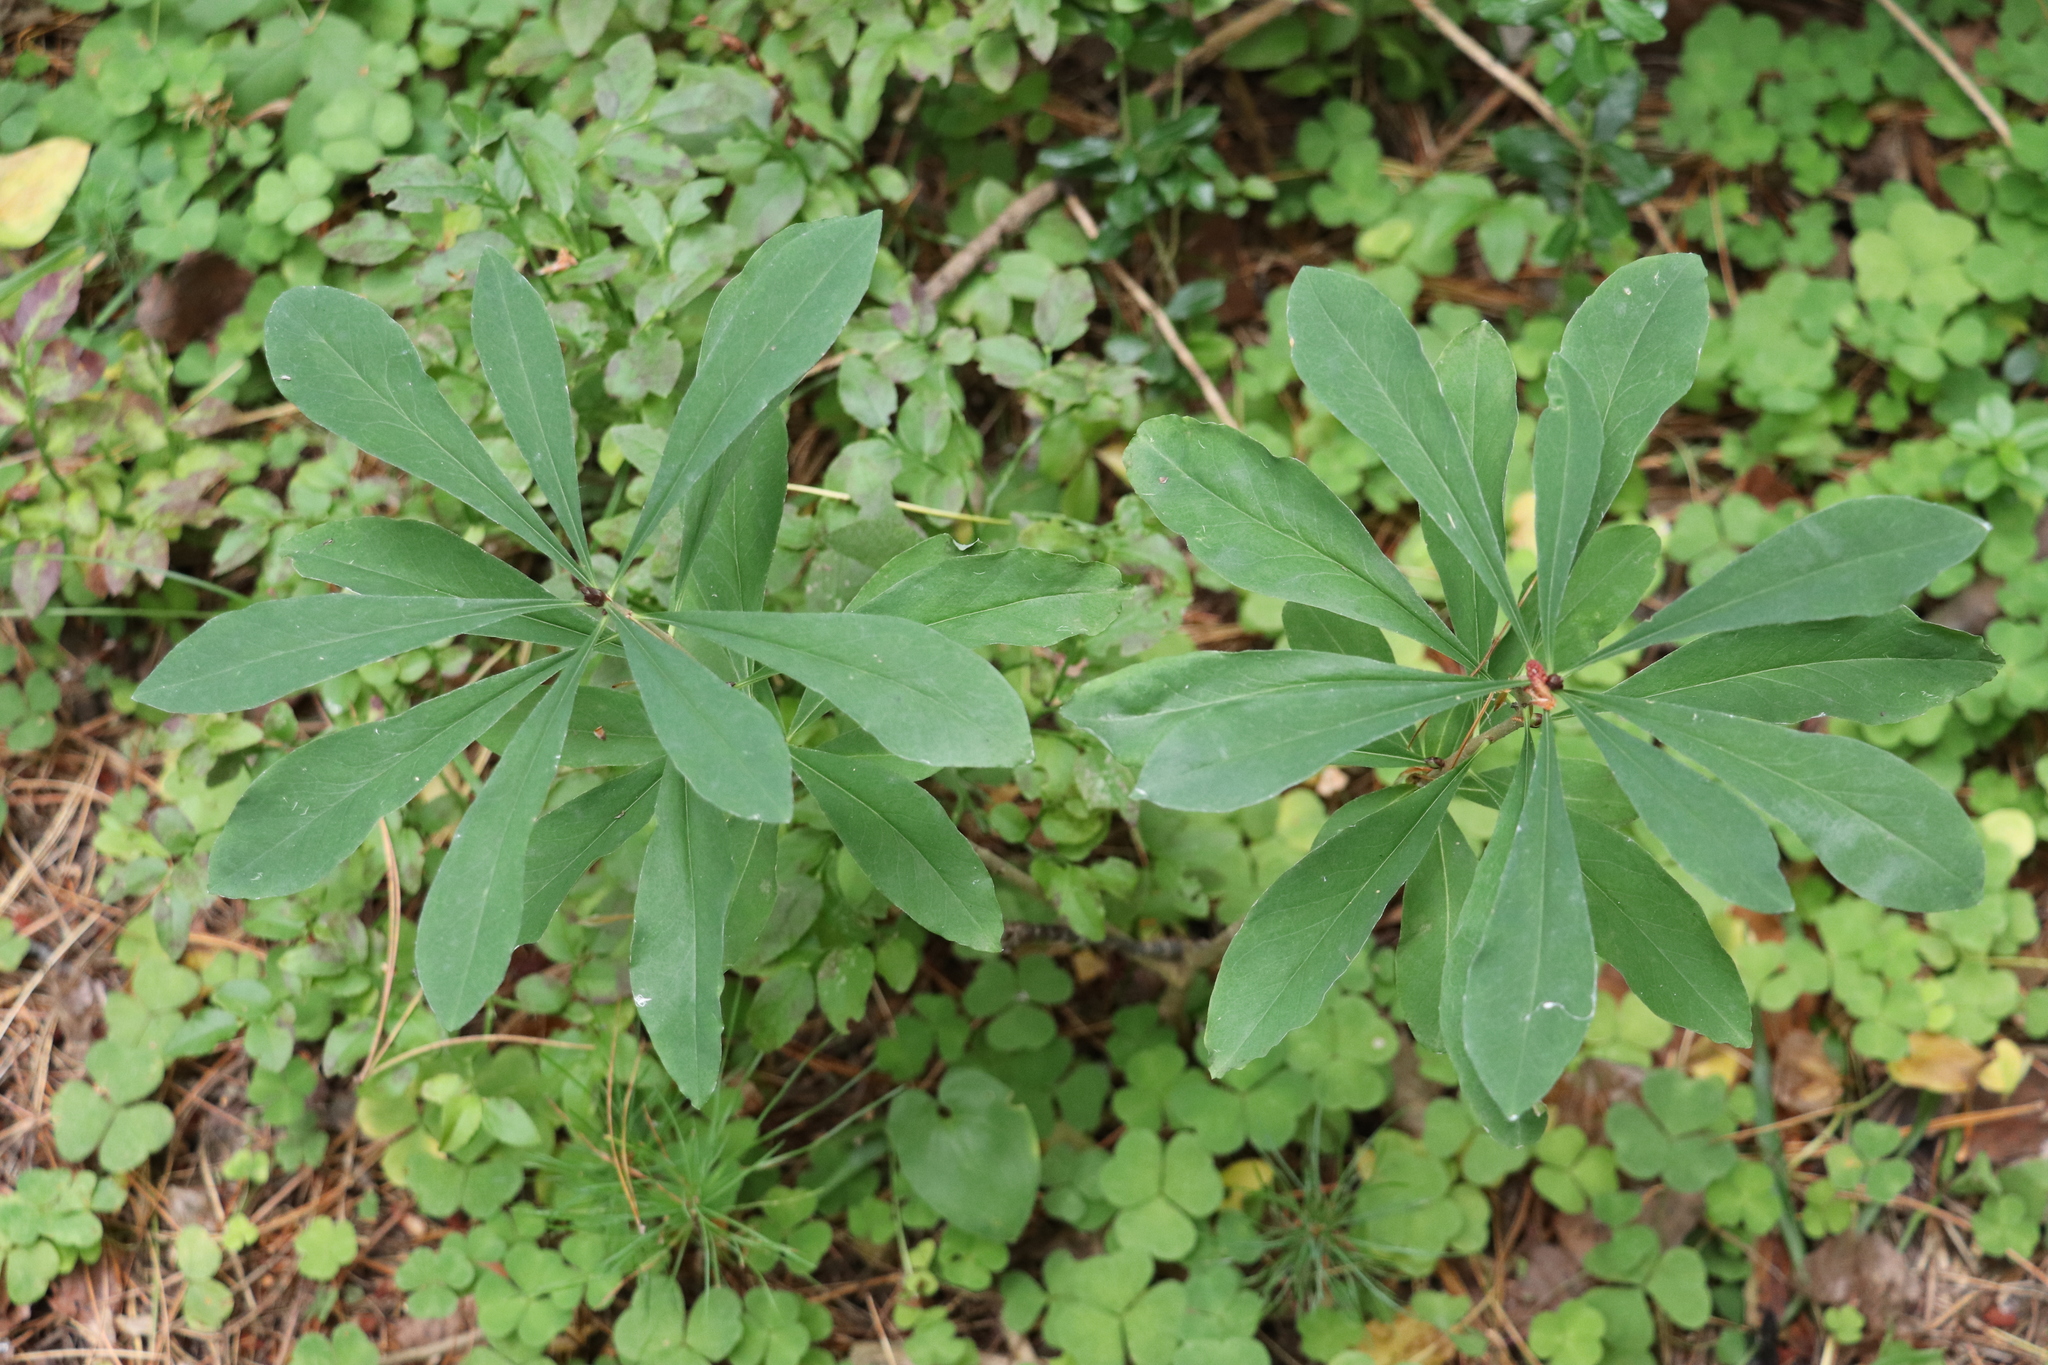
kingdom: Plantae
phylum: Tracheophyta
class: Magnoliopsida
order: Malvales
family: Thymelaeaceae
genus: Daphne
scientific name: Daphne mezereum
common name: Mezereon
